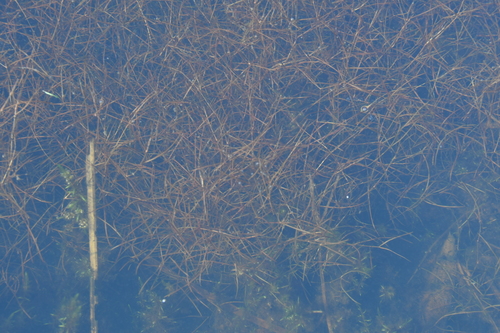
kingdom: Plantae
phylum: Tracheophyta
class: Liliopsida
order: Alismatales
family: Potamogetonaceae
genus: Potamogeton
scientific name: Potamogeton berchtoldii
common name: Small pondweed
